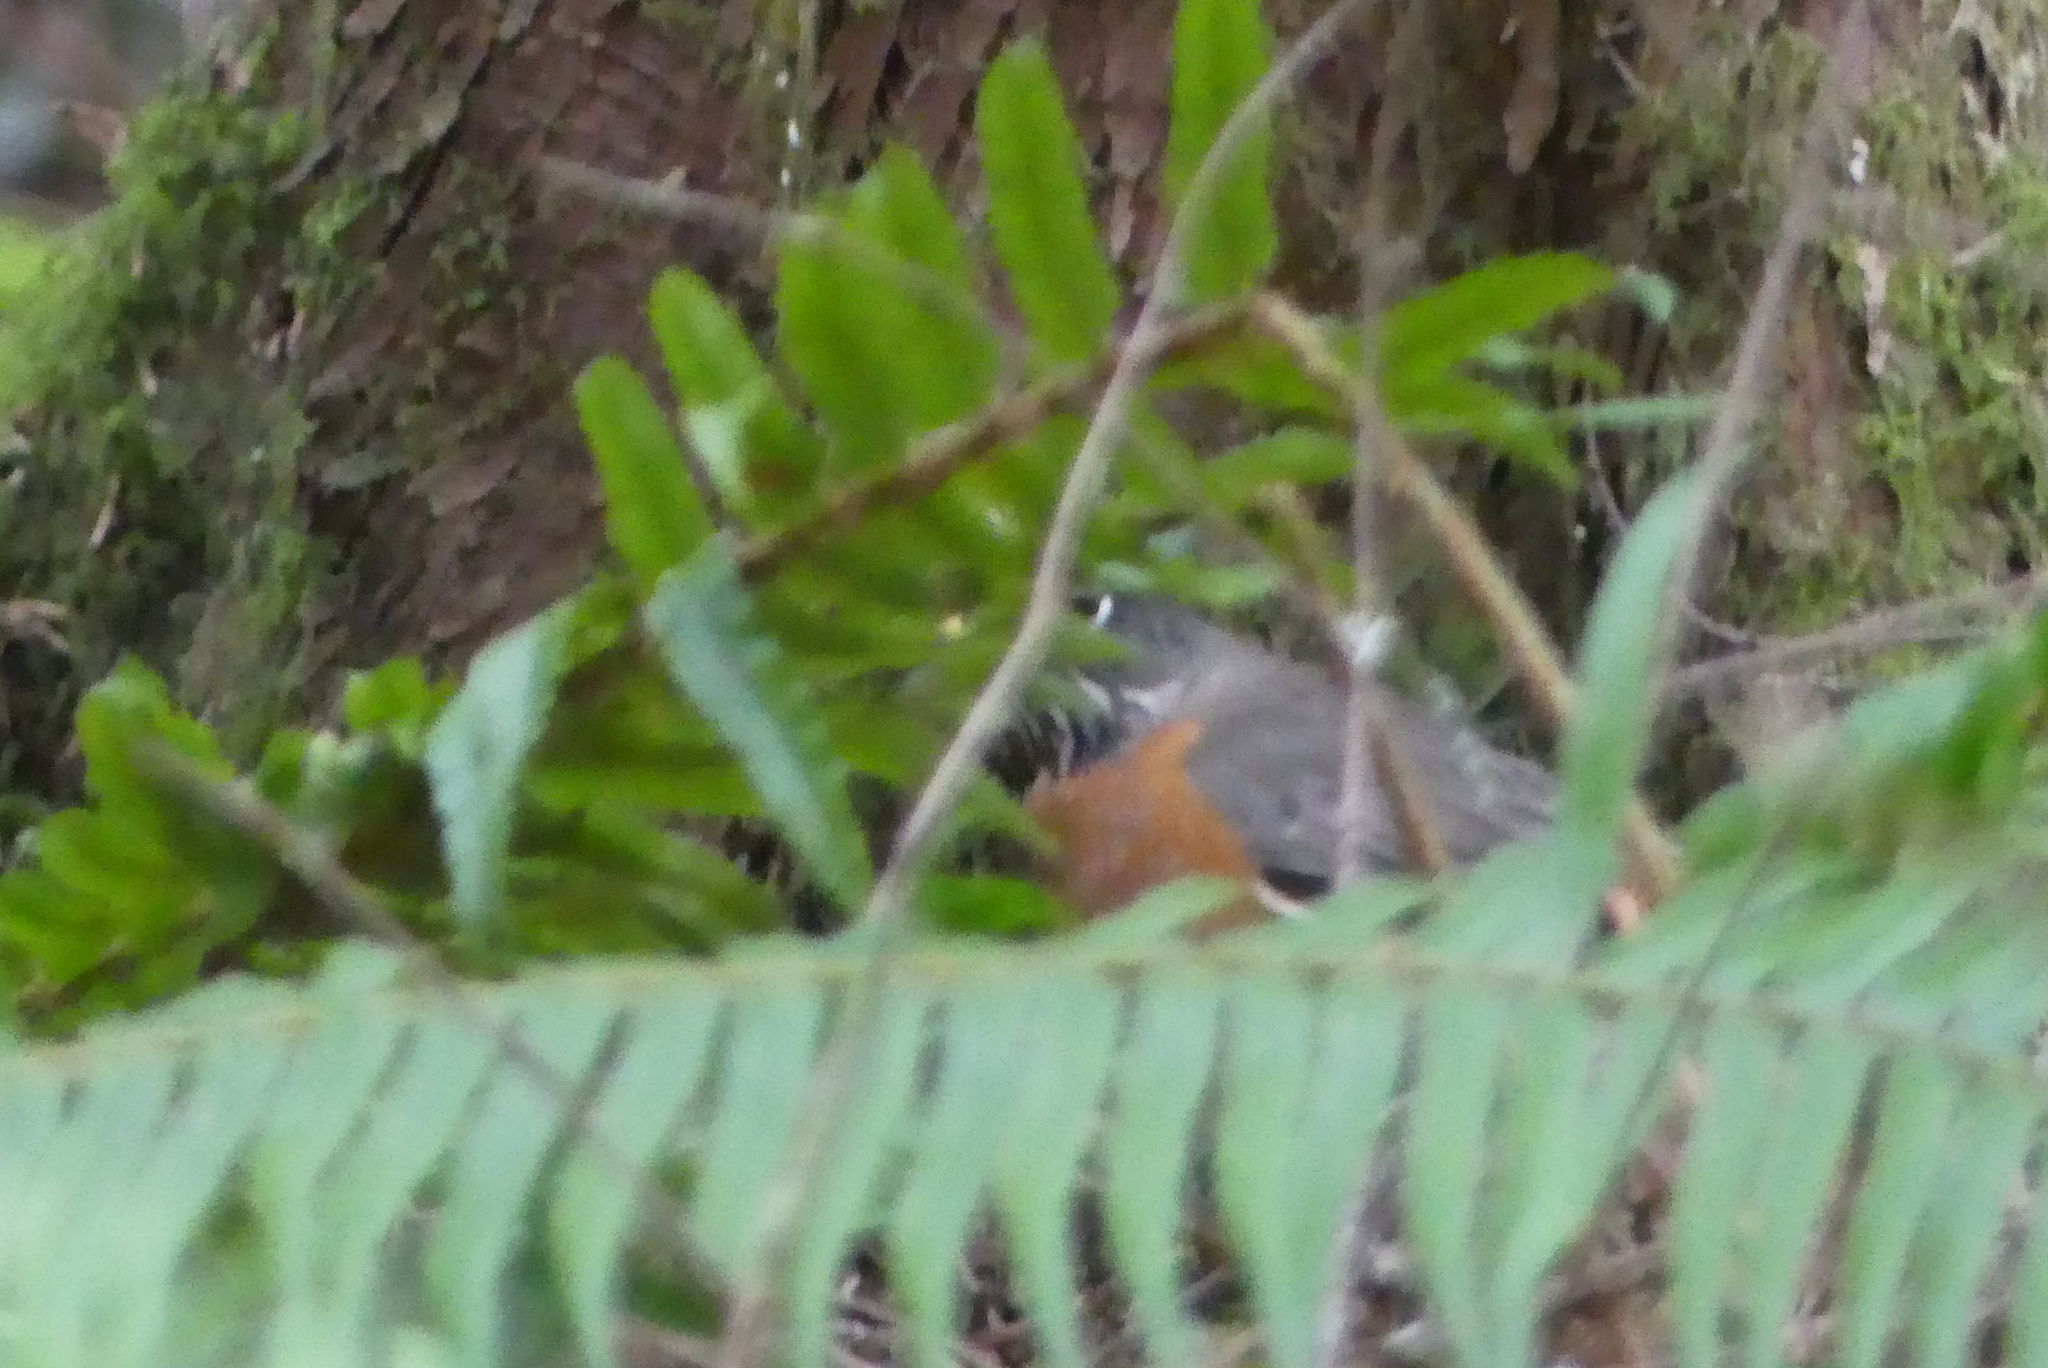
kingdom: Animalia
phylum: Chordata
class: Aves
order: Passeriformes
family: Turdidae
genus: Turdus
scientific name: Turdus migratorius
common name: American robin
